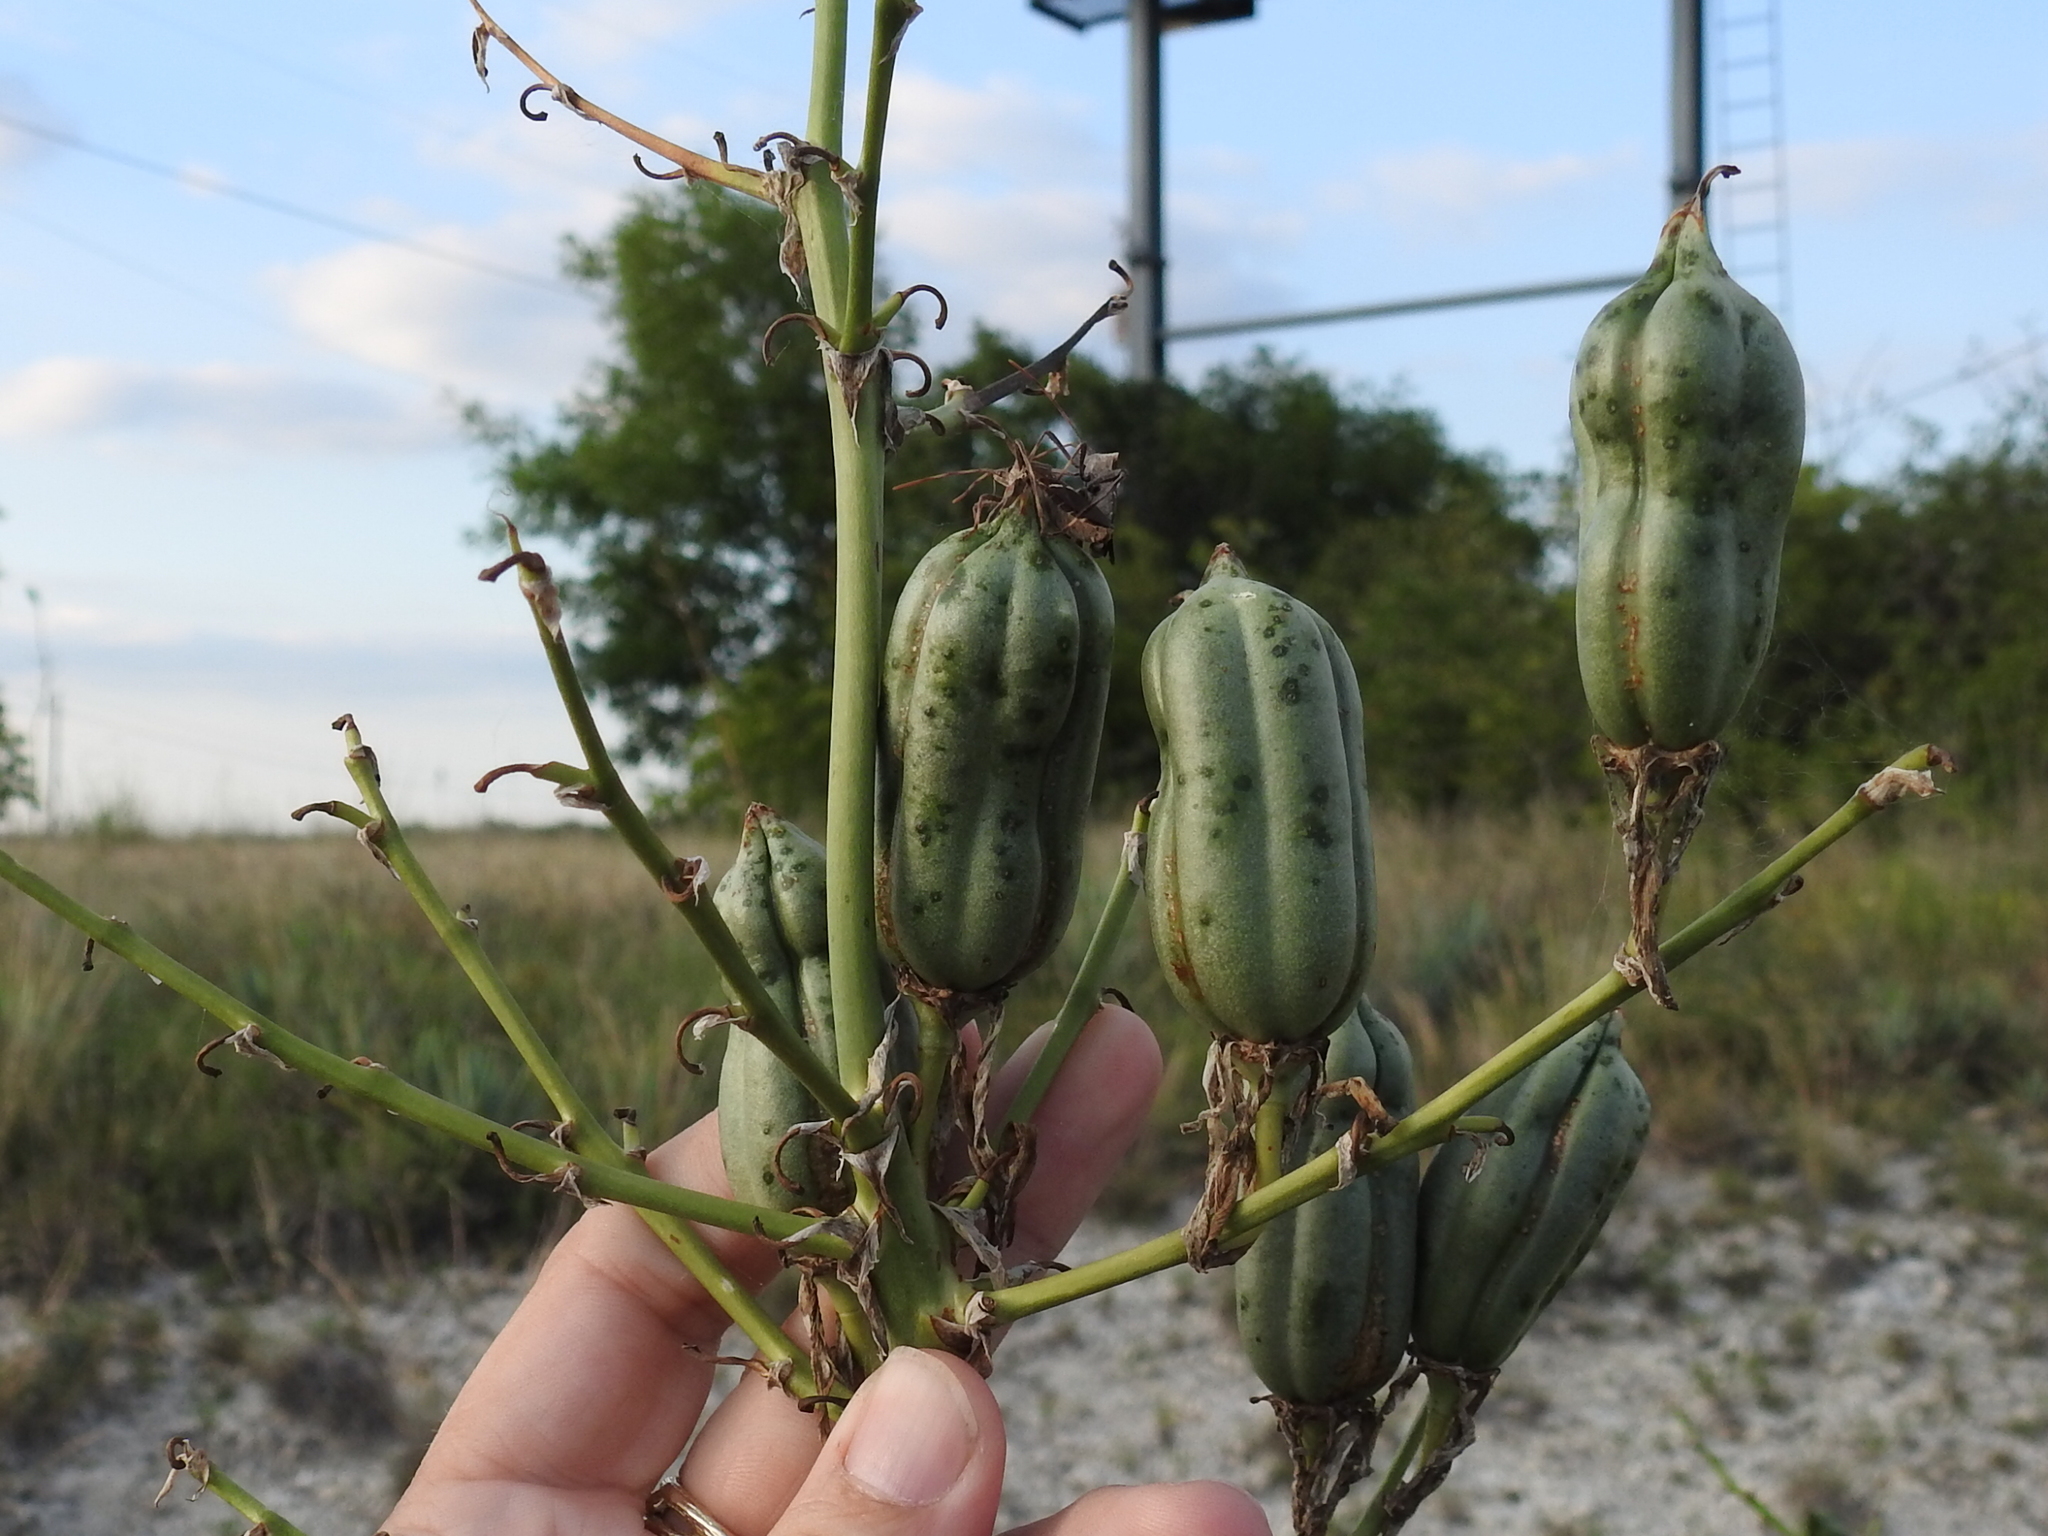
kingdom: Plantae
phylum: Tracheophyta
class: Liliopsida
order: Asparagales
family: Asparagaceae
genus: Yucca
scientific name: Yucca pallida
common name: Pale leaf yucca
